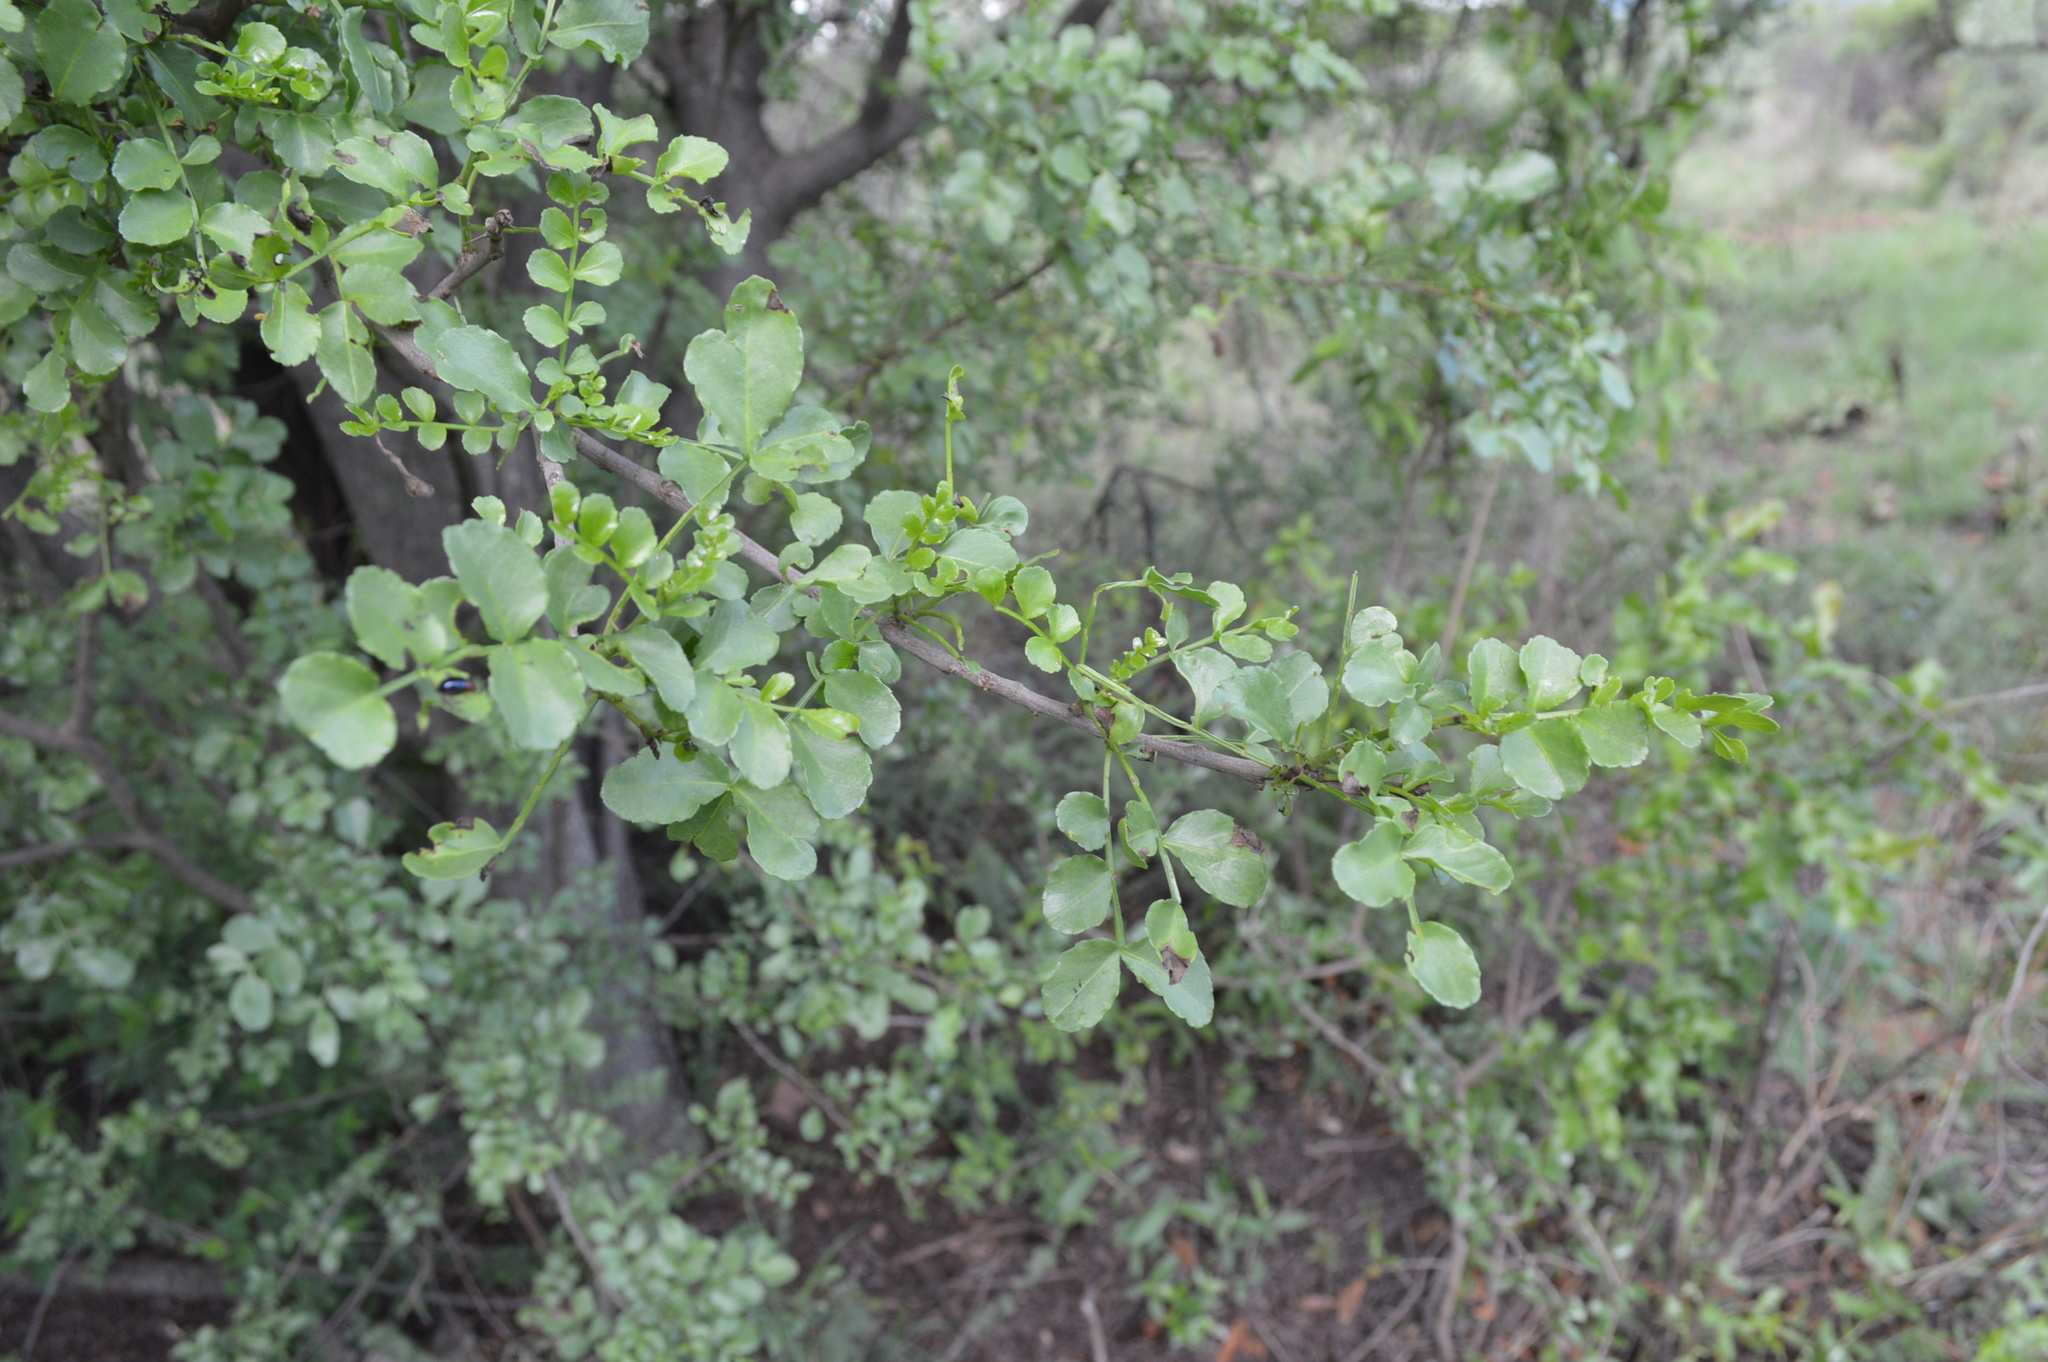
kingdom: Plantae
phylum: Tracheophyta
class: Magnoliopsida
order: Sapindales
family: Rutaceae
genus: Zanthoxylum
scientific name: Zanthoxylum capense
